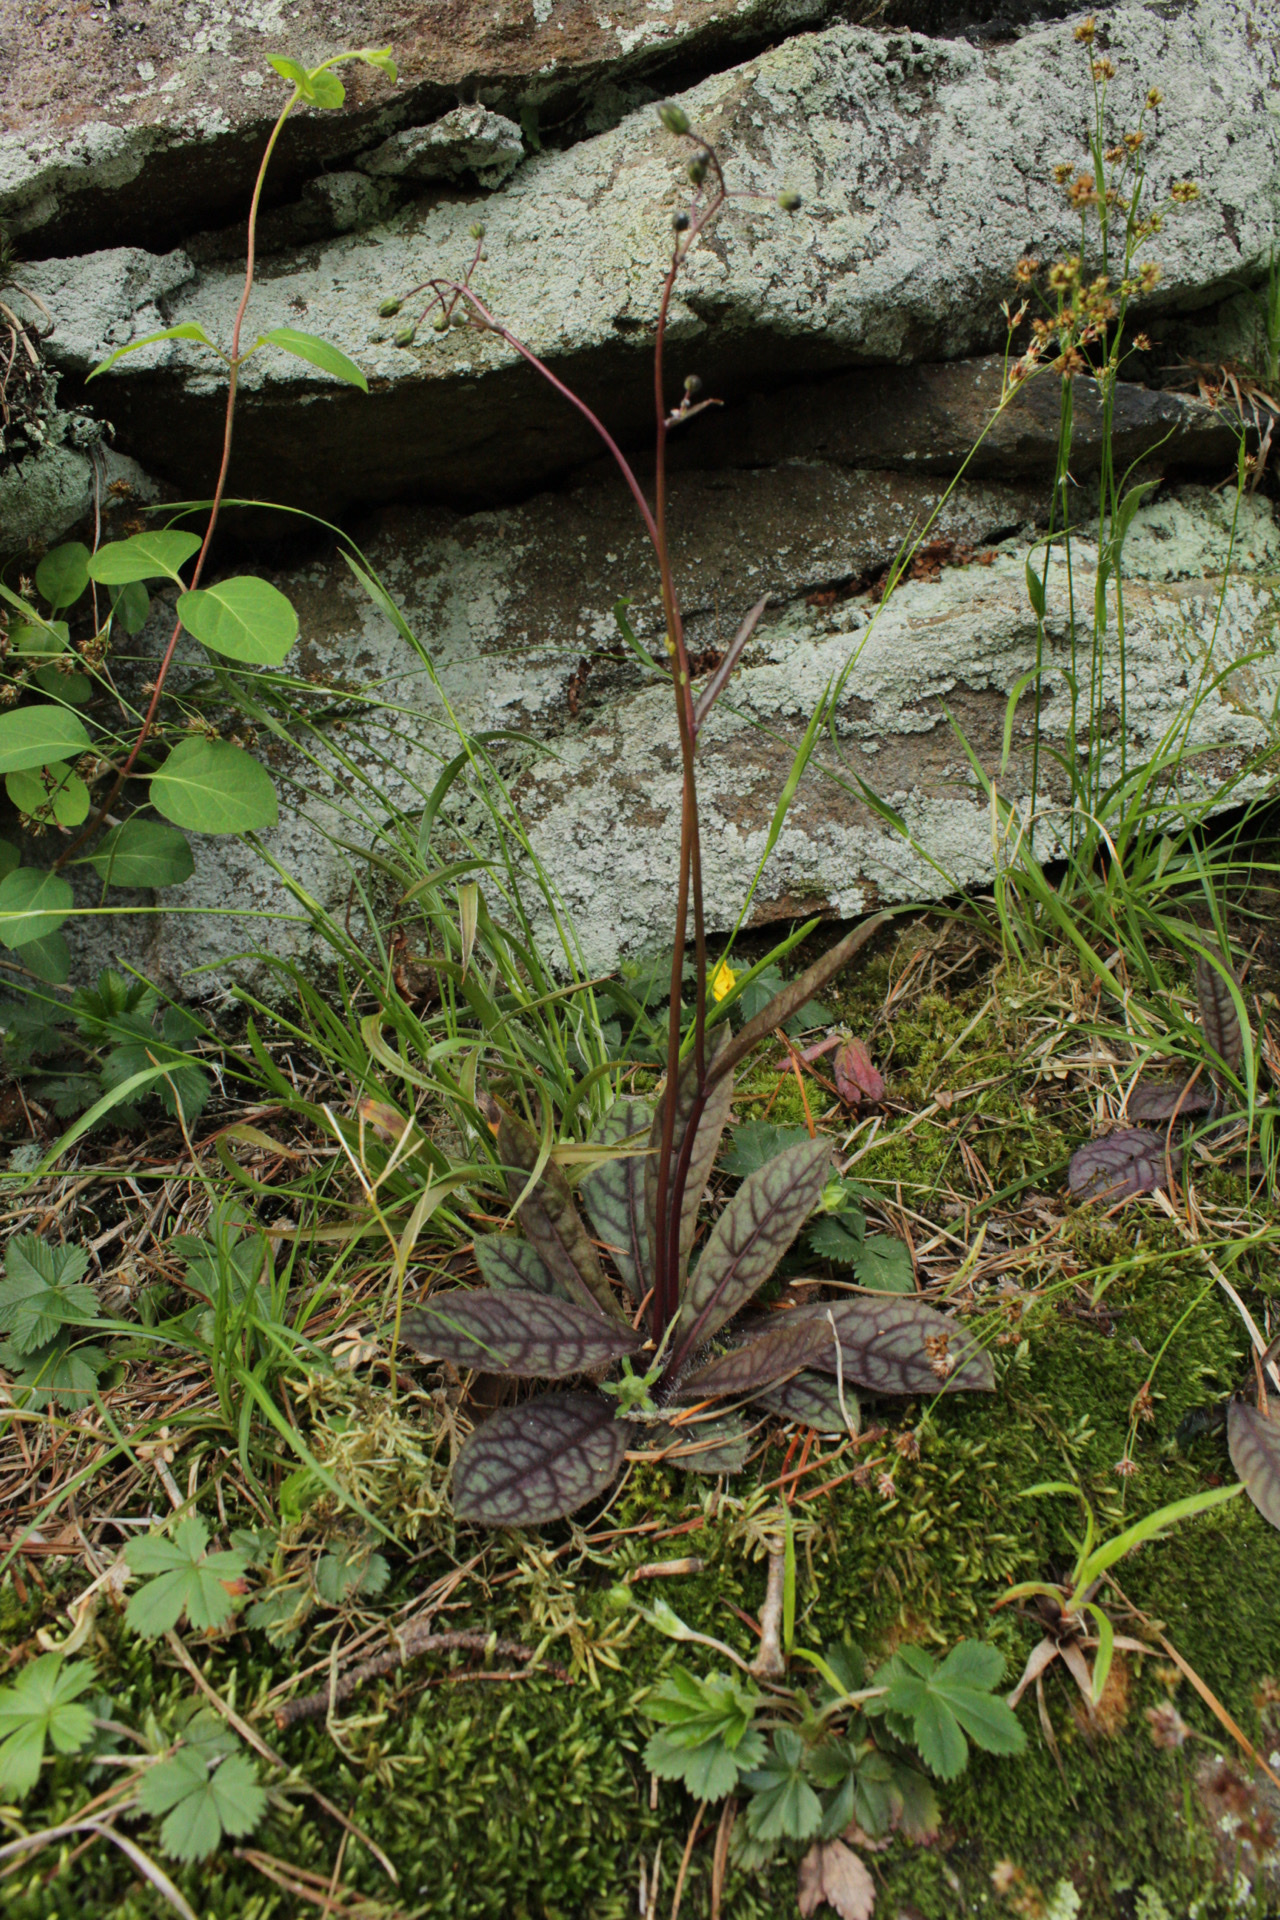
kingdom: Plantae
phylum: Tracheophyta
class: Magnoliopsida
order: Asterales
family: Asteraceae
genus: Hieracium
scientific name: Hieracium venosum
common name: Rattlesnake hawkweed
